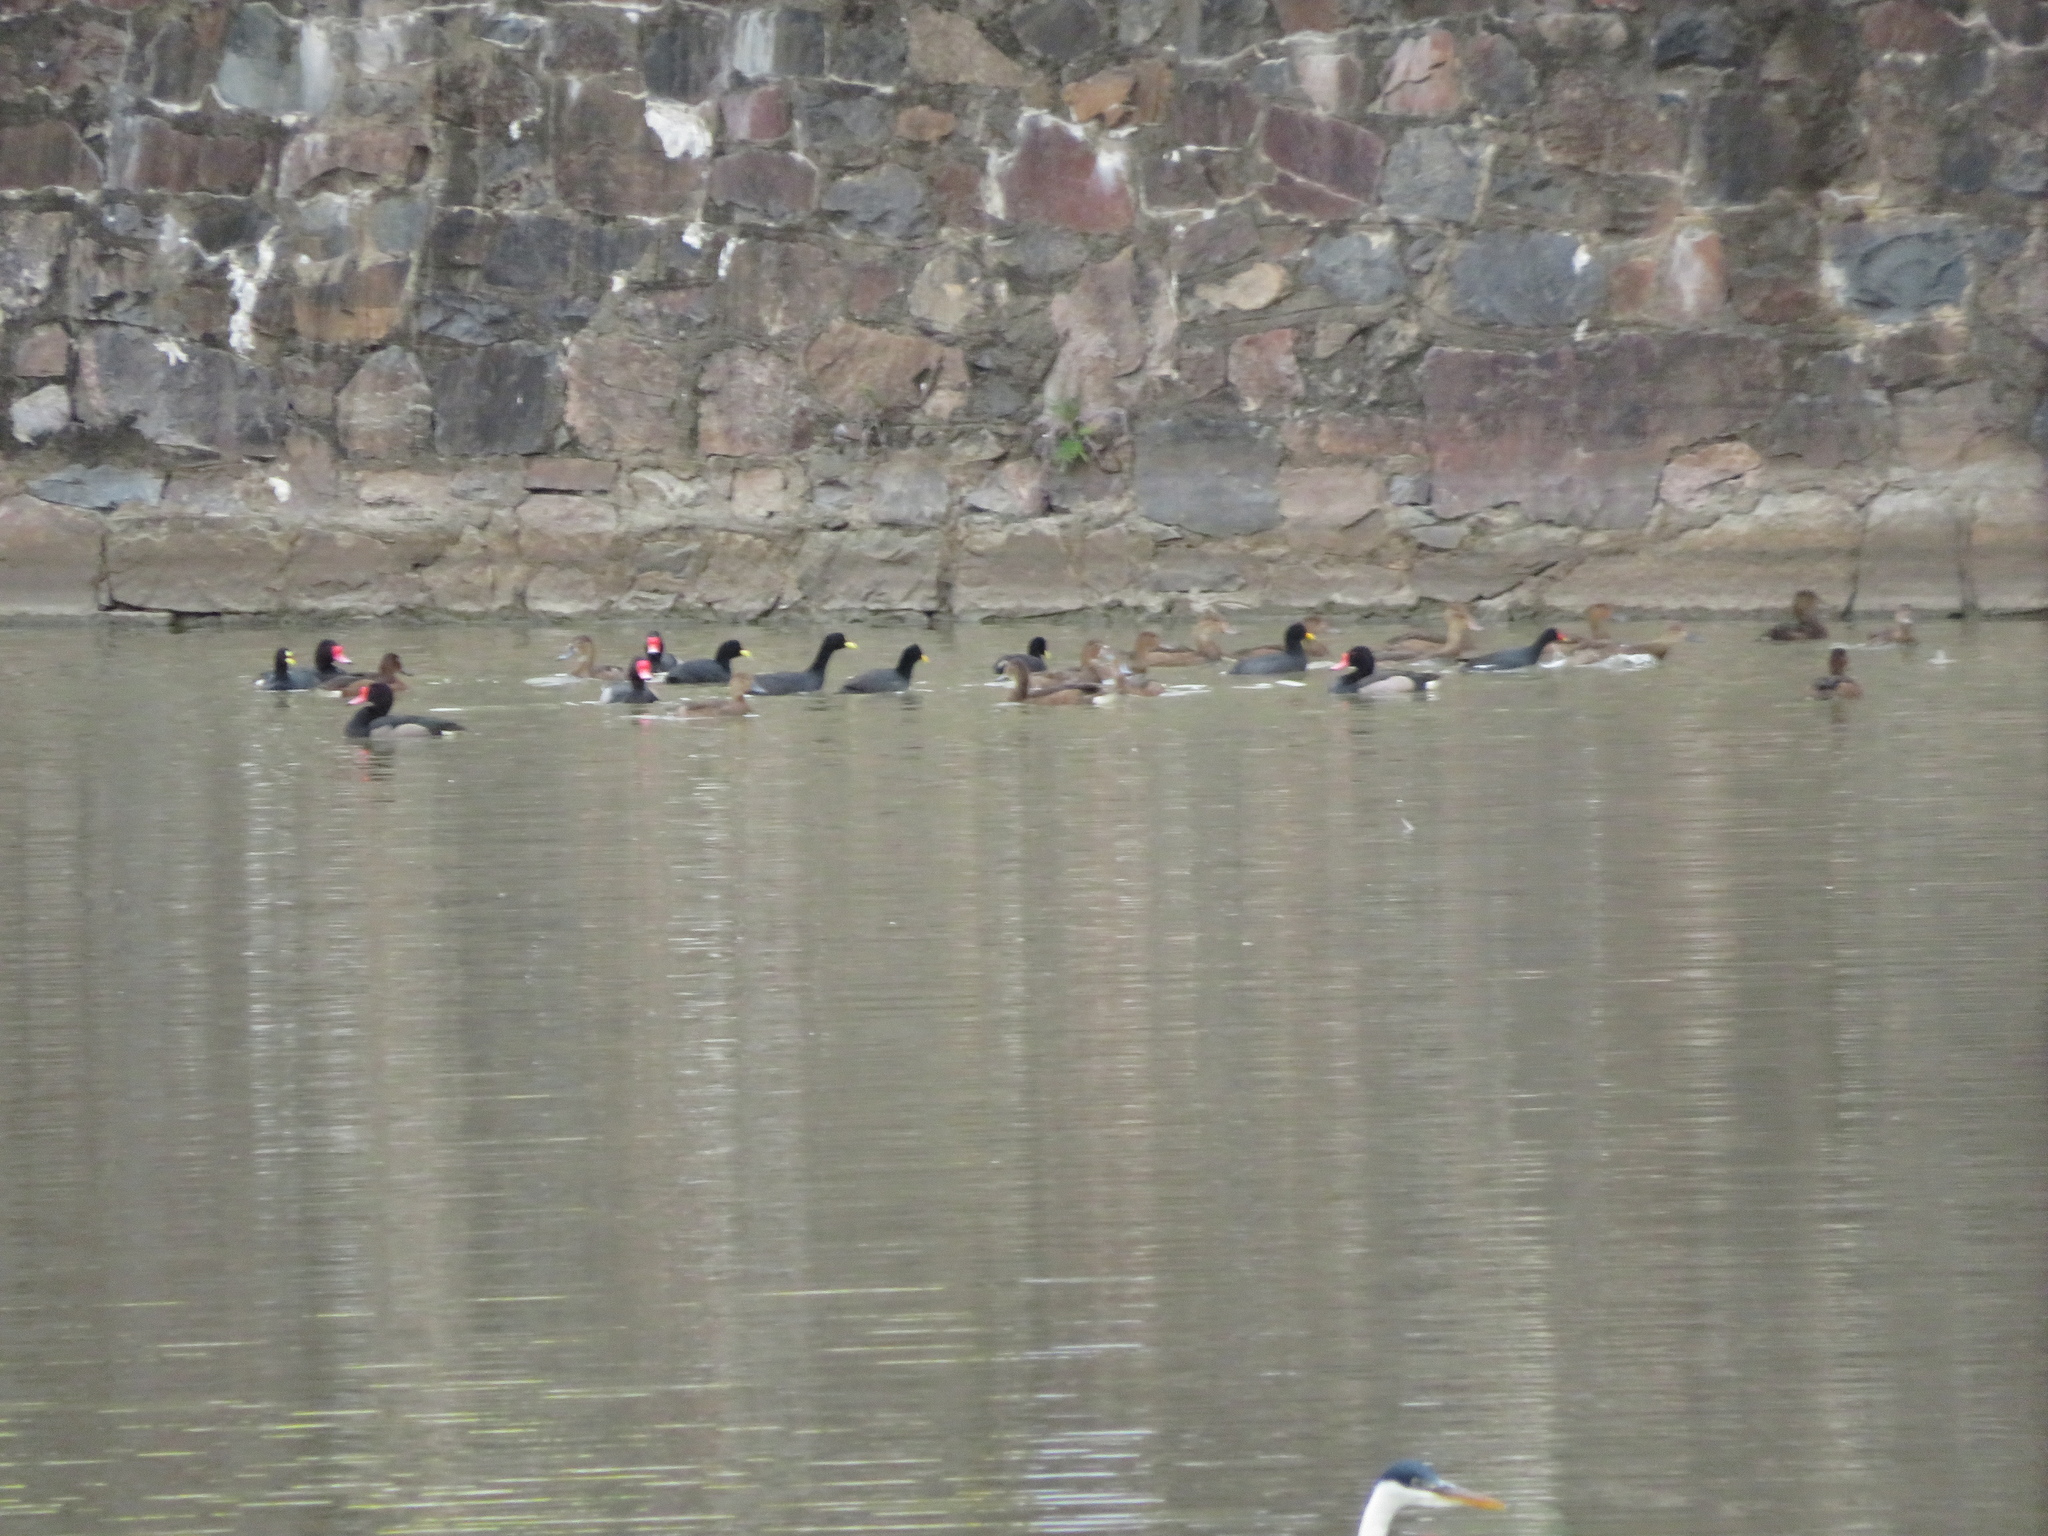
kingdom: Animalia
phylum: Chordata
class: Aves
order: Anseriformes
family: Anatidae
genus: Netta
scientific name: Netta peposaca
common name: Rosy-billed pochard
